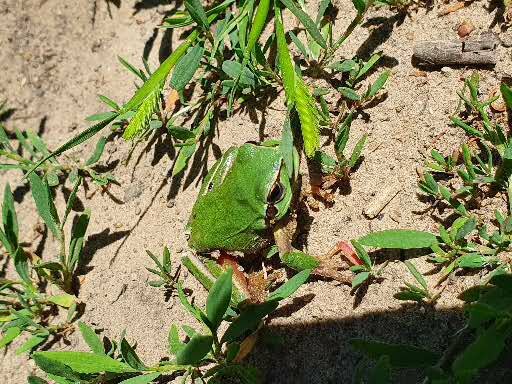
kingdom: Animalia
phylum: Chordata
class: Amphibia
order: Anura
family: Hylidae
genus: Hyla
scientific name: Hyla meridionalis
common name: Stripeless tree frog
